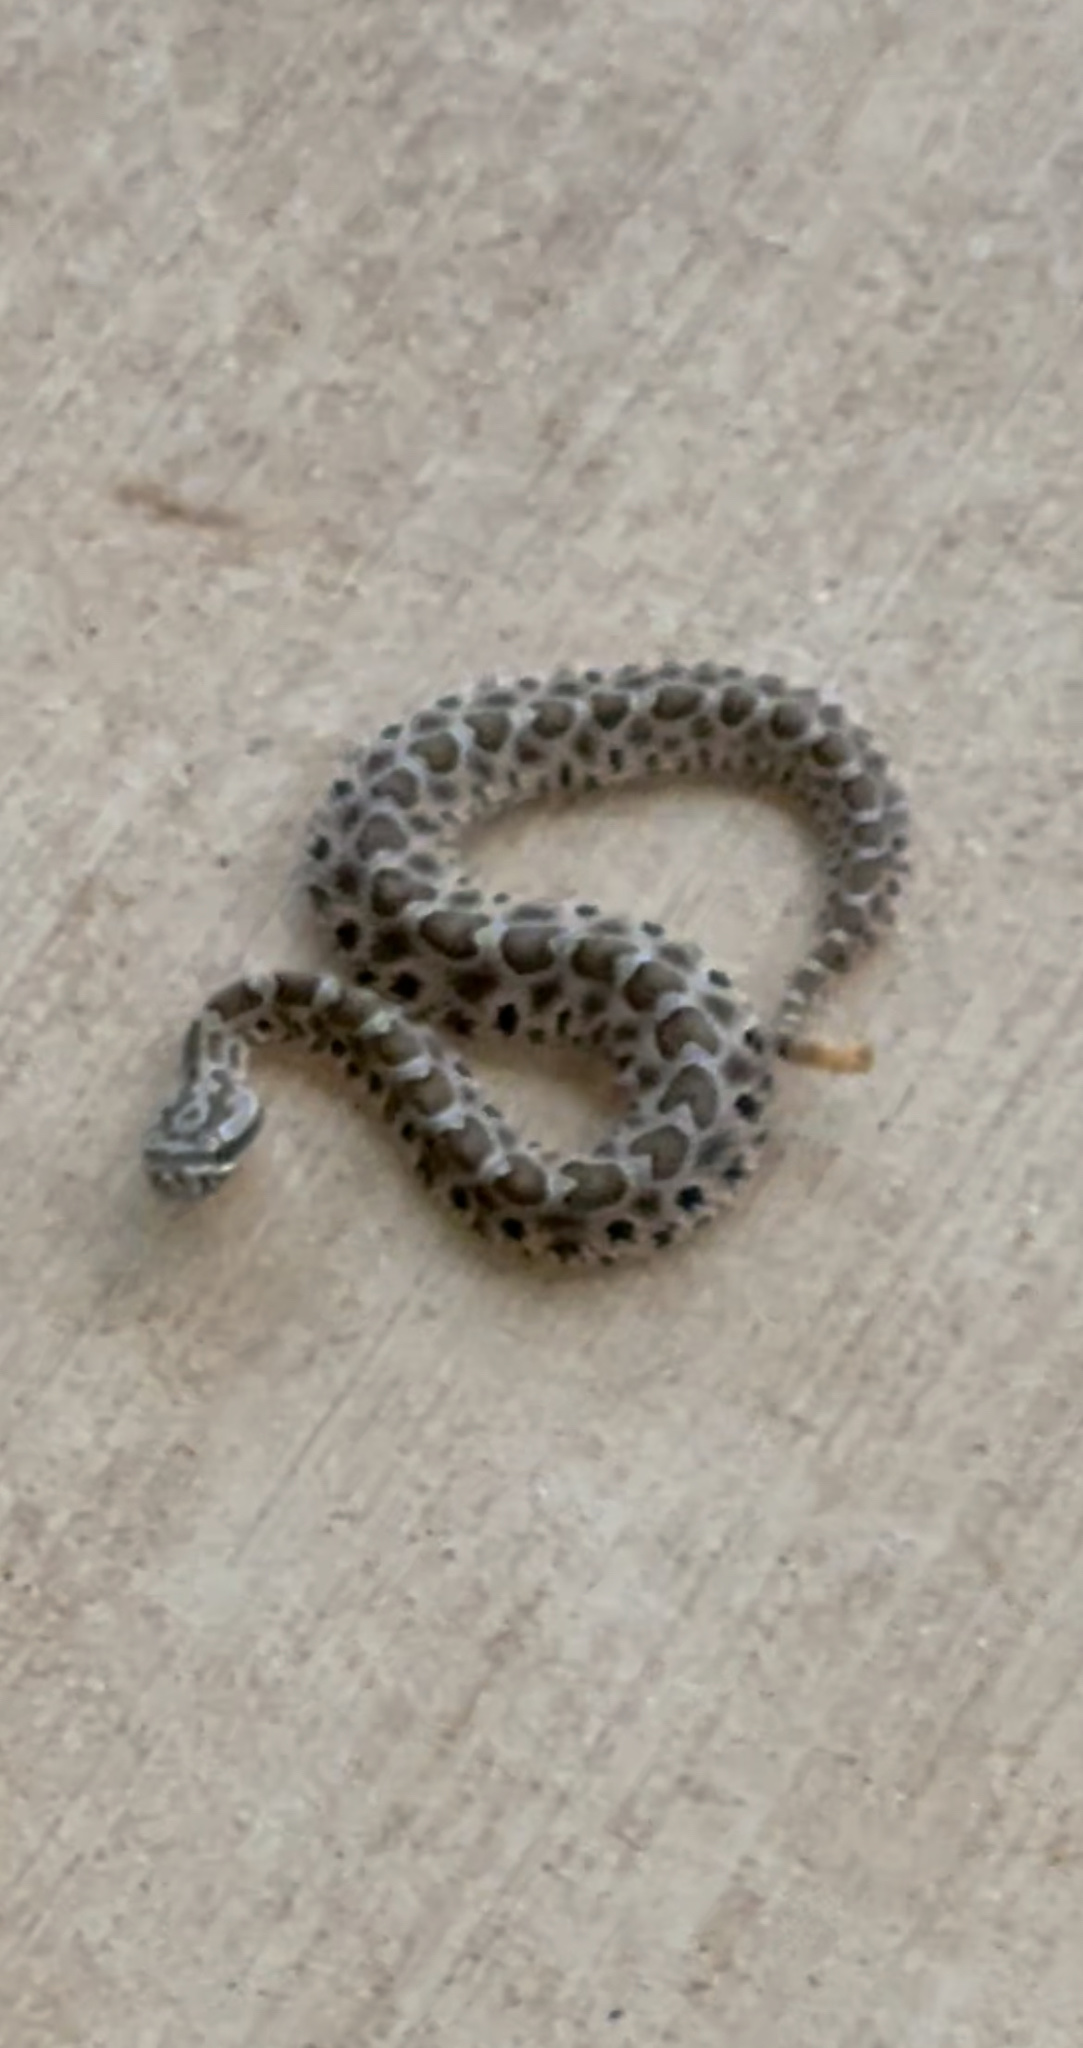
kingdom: Animalia
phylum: Chordata
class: Squamata
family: Viperidae
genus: Sistrurus
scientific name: Sistrurus tergeminus
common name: Desert massasauga [edwardsi]
